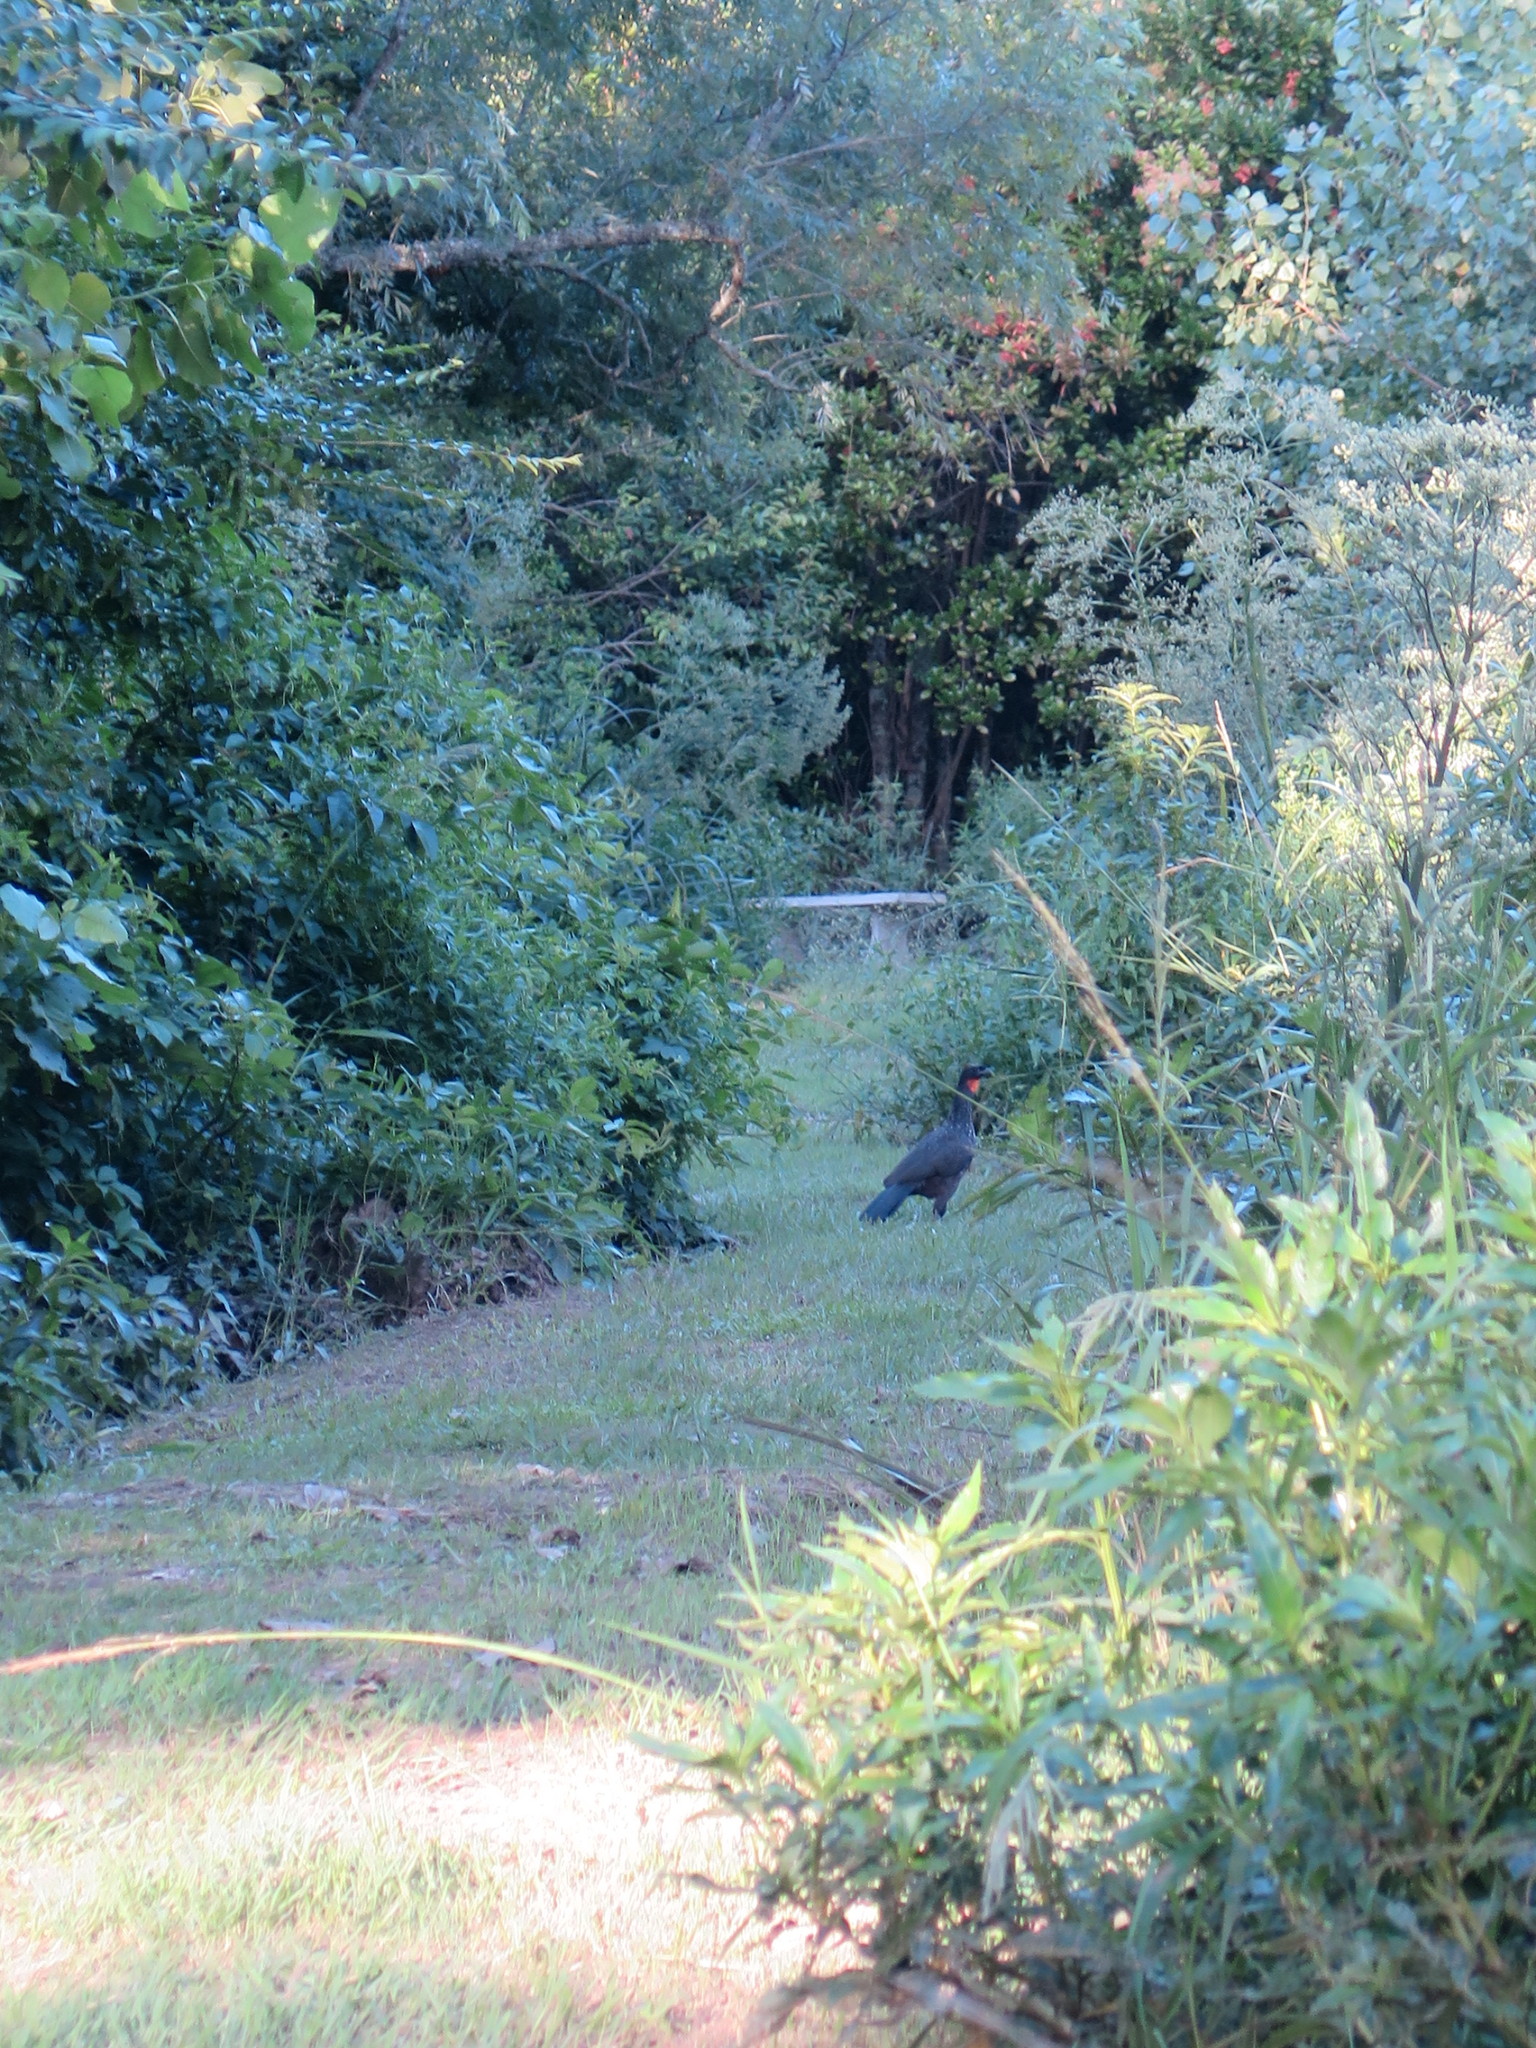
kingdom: Animalia
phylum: Chordata
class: Aves
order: Galliformes
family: Cracidae
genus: Penelope
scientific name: Penelope obscura
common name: Dusky-legged guan
